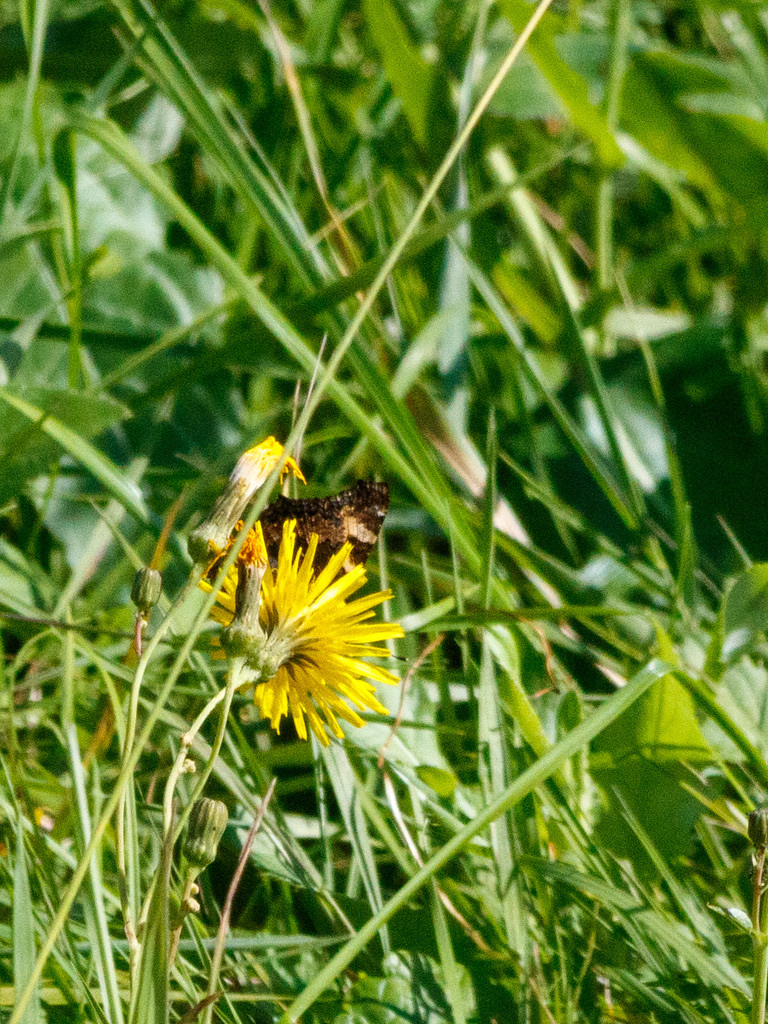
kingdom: Animalia
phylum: Arthropoda
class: Insecta
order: Lepidoptera
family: Nymphalidae
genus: Aglais
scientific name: Aglais urticae
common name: Small tortoiseshell
